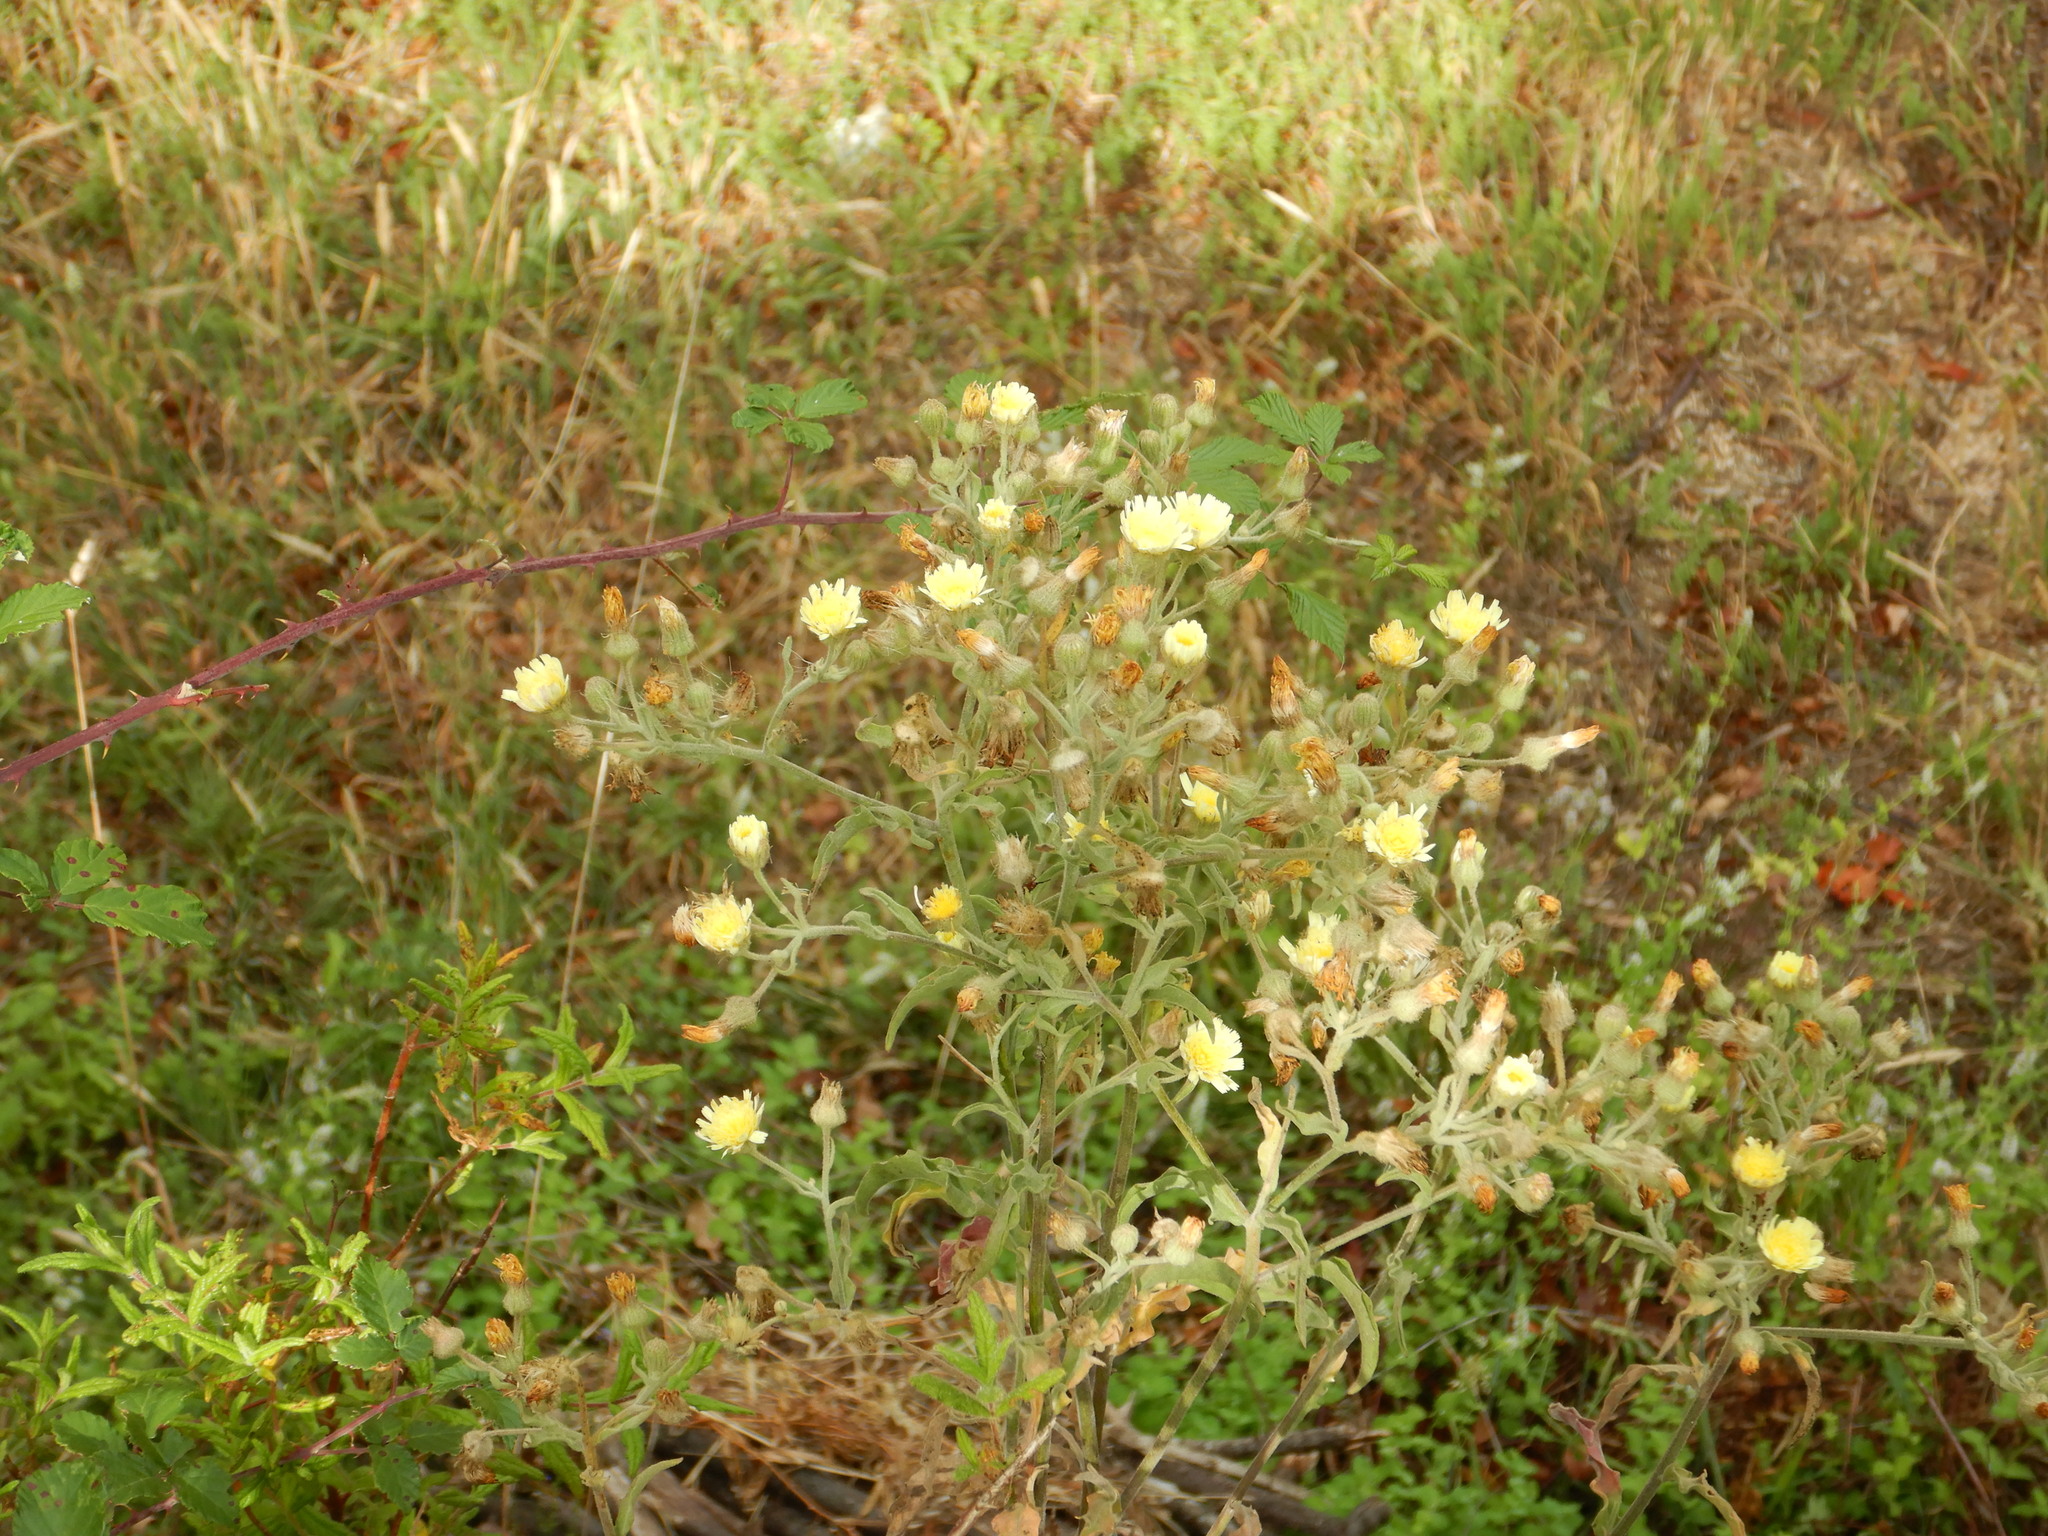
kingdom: Plantae
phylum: Tracheophyta
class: Magnoliopsida
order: Asterales
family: Asteraceae
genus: Andryala
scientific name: Andryala integrifolia
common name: Common andryala
